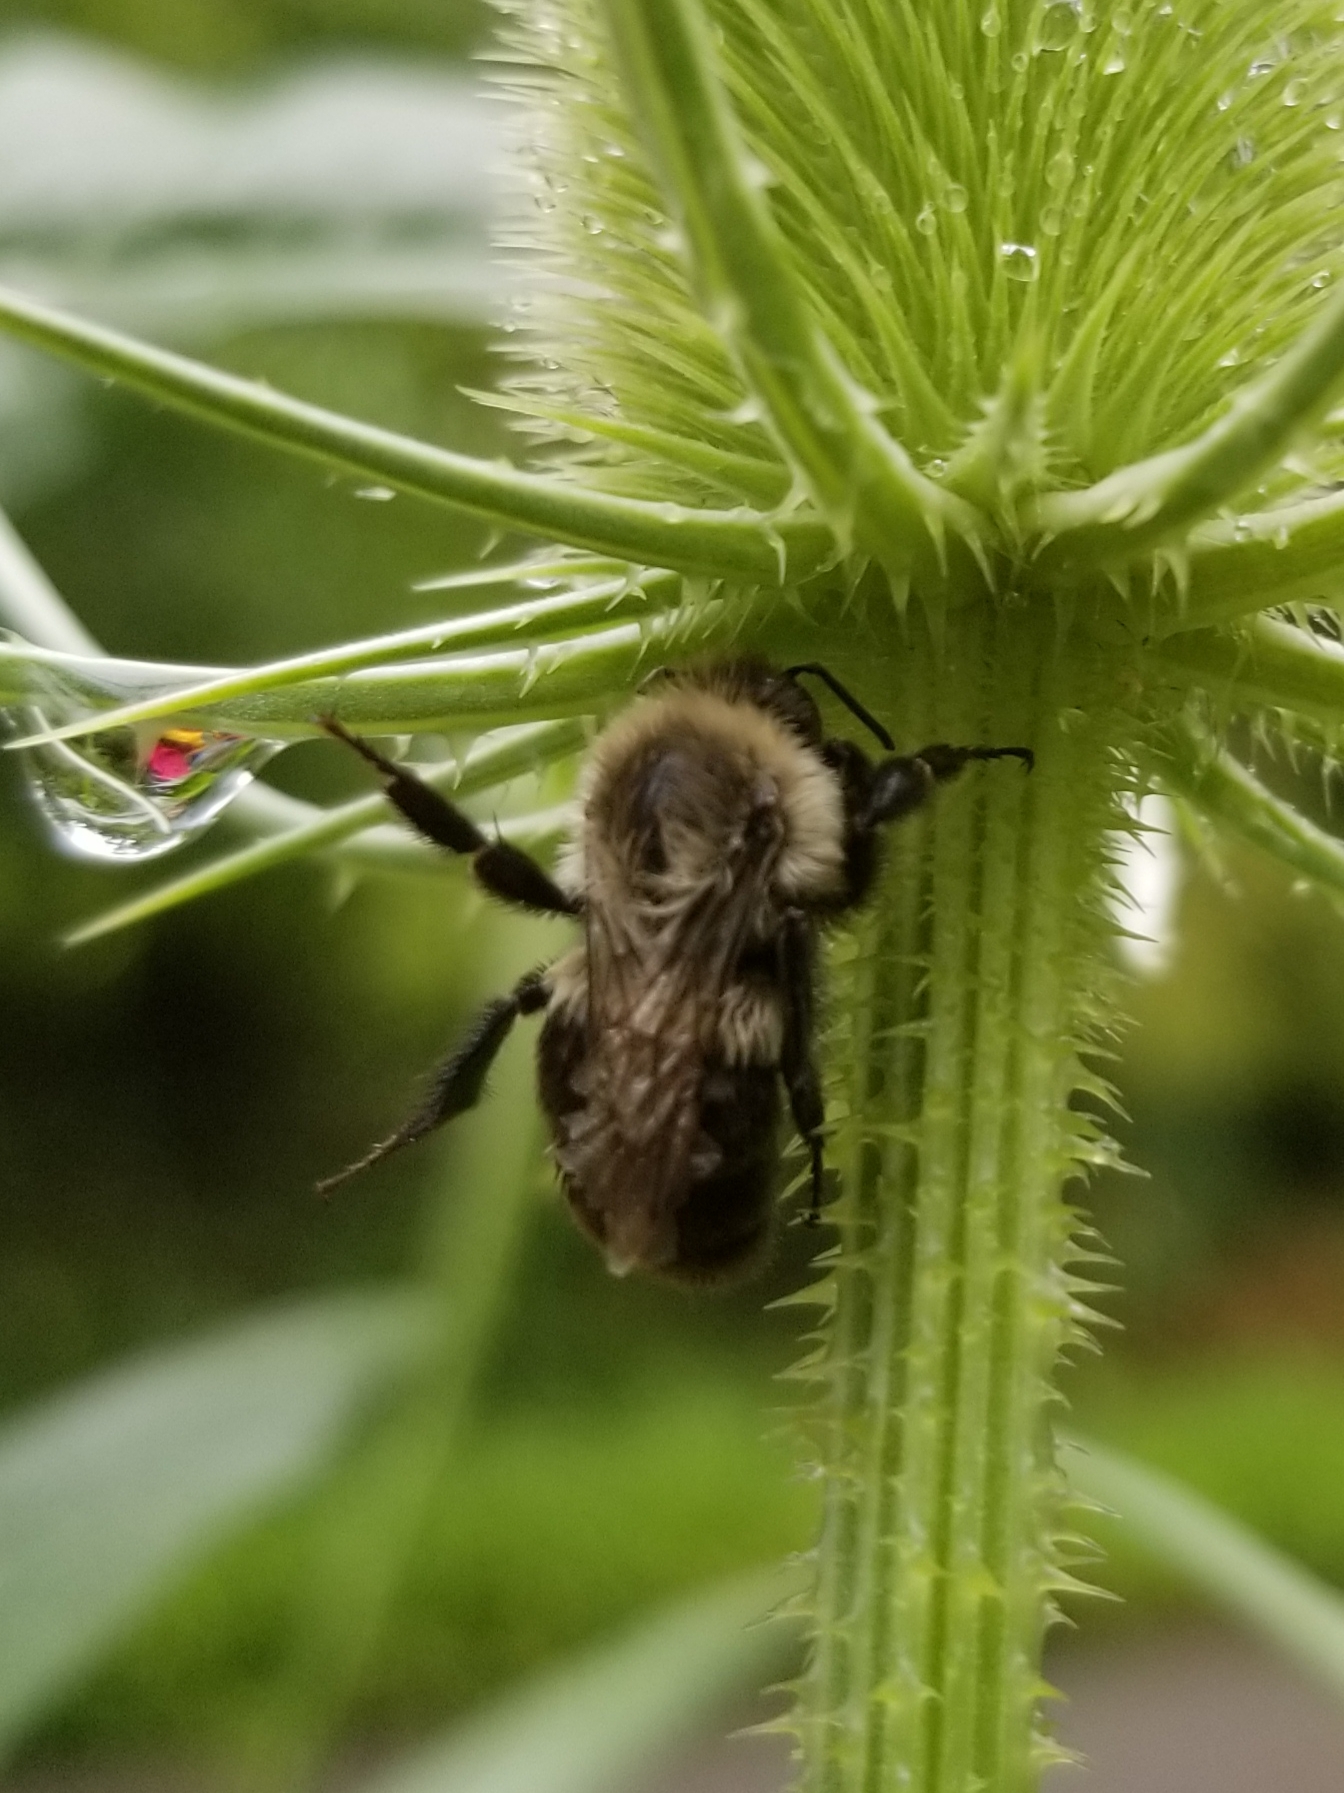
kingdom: Animalia
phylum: Arthropoda
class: Insecta
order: Hymenoptera
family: Apidae
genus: Bombus
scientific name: Bombus impatiens
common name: Common eastern bumble bee
